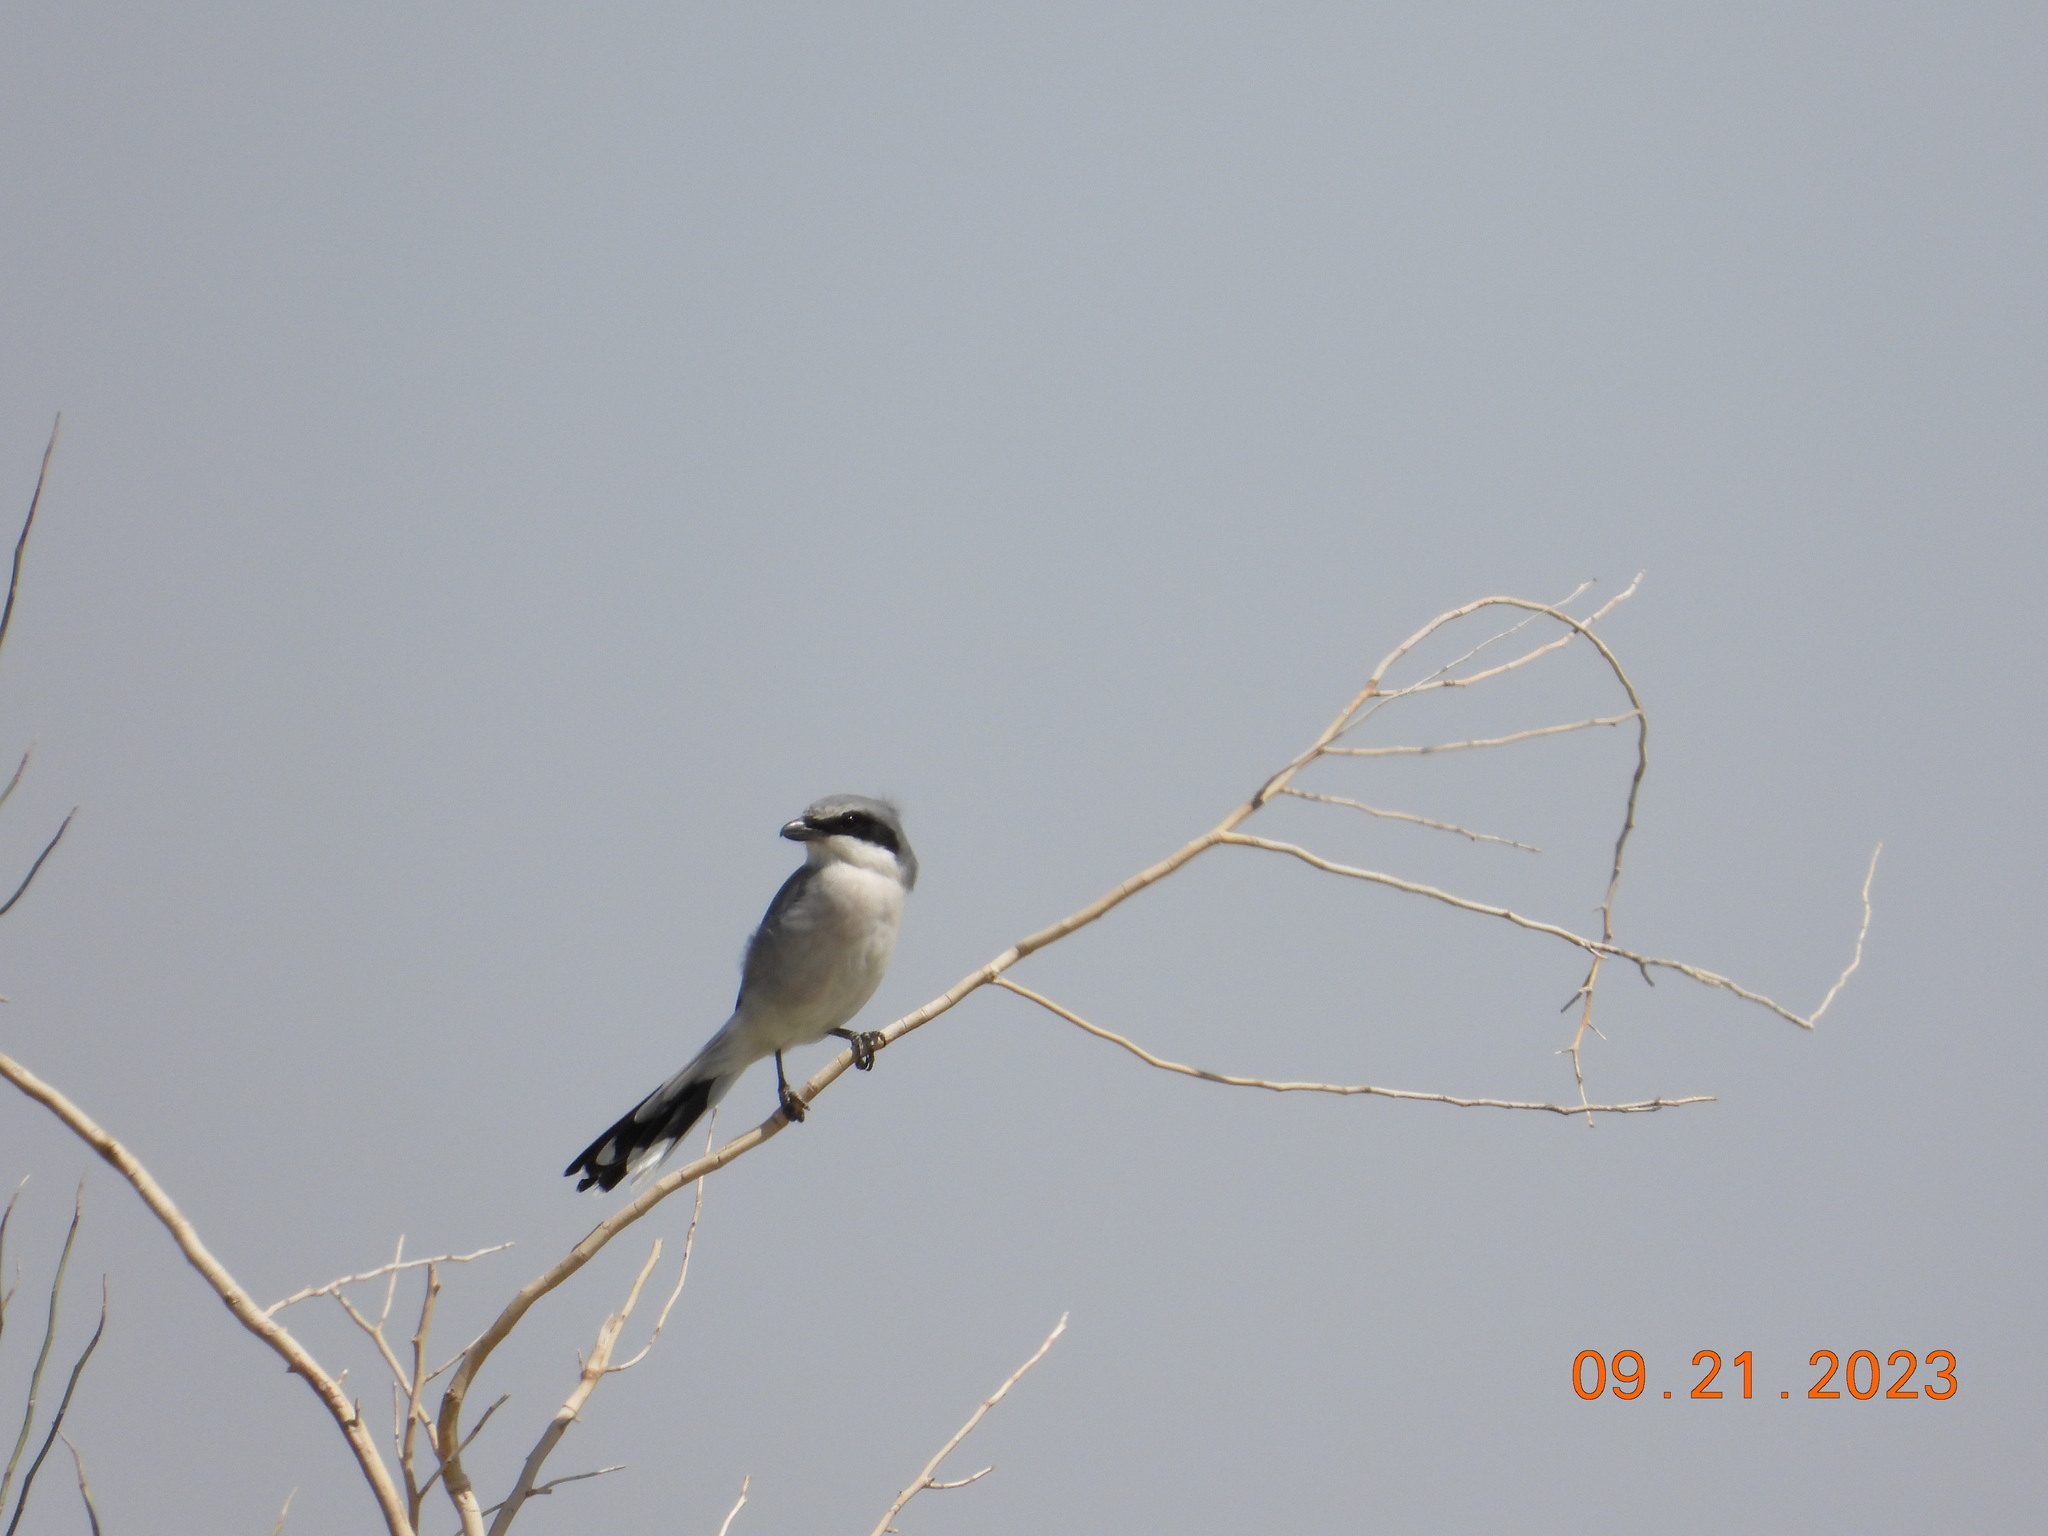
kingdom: Animalia
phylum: Chordata
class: Aves
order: Passeriformes
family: Laniidae
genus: Lanius
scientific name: Lanius ludovicianus
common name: Loggerhead shrike
